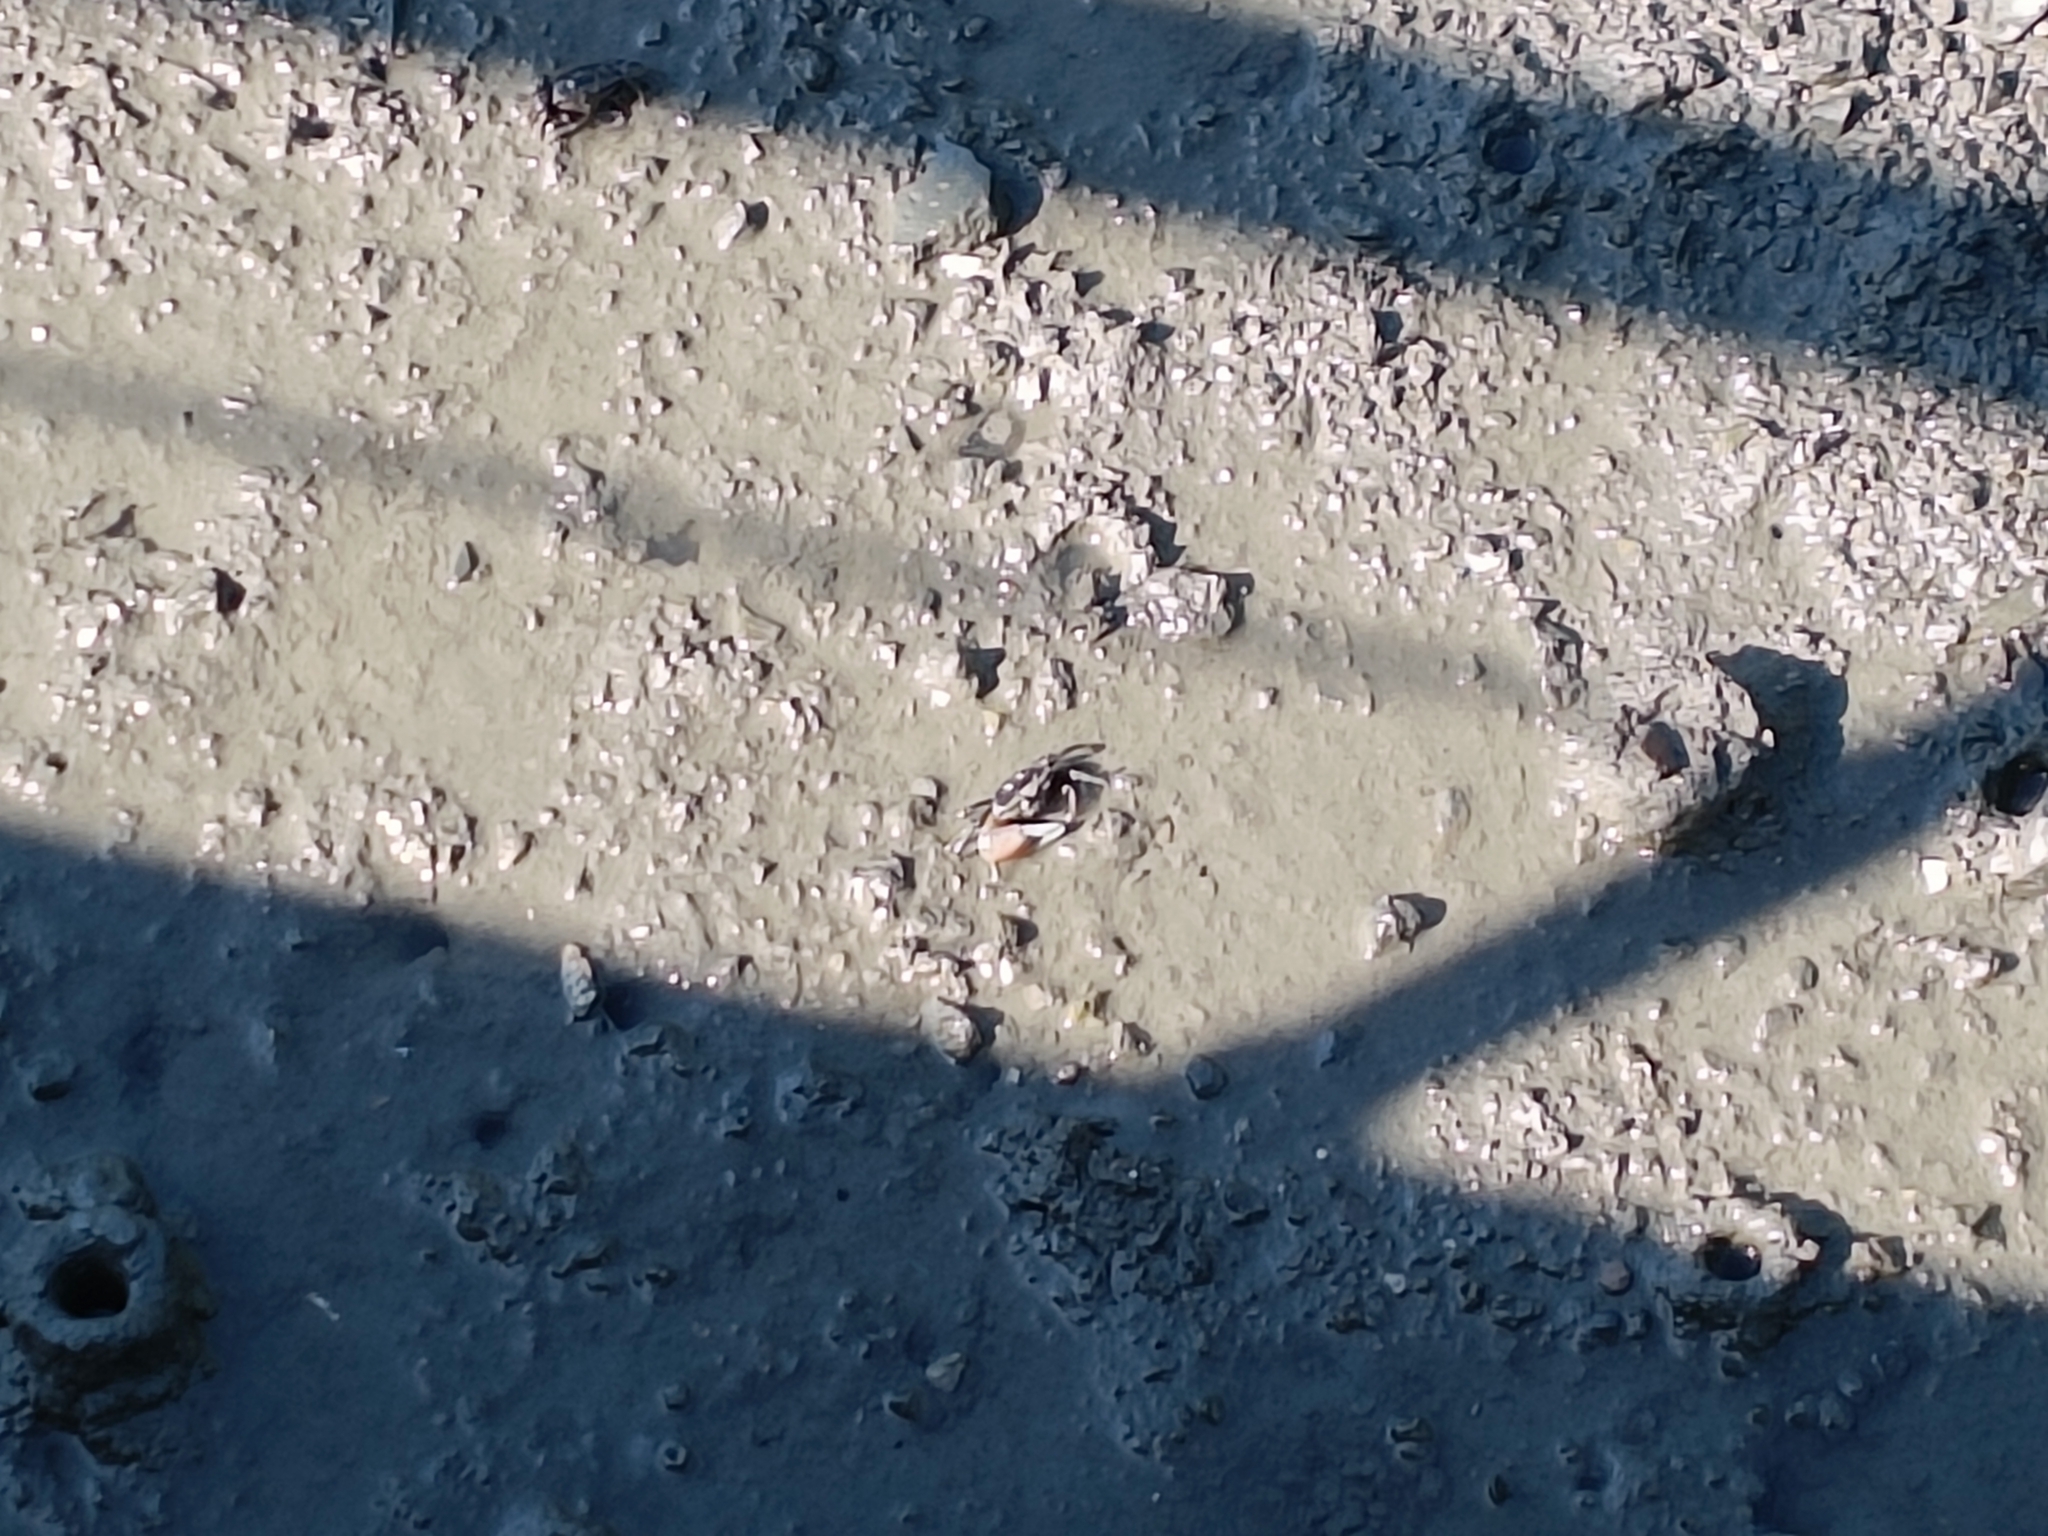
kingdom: Animalia
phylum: Arthropoda
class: Malacostraca
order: Decapoda
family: Ocypodidae
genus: Tubuca
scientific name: Tubuca arcuata
